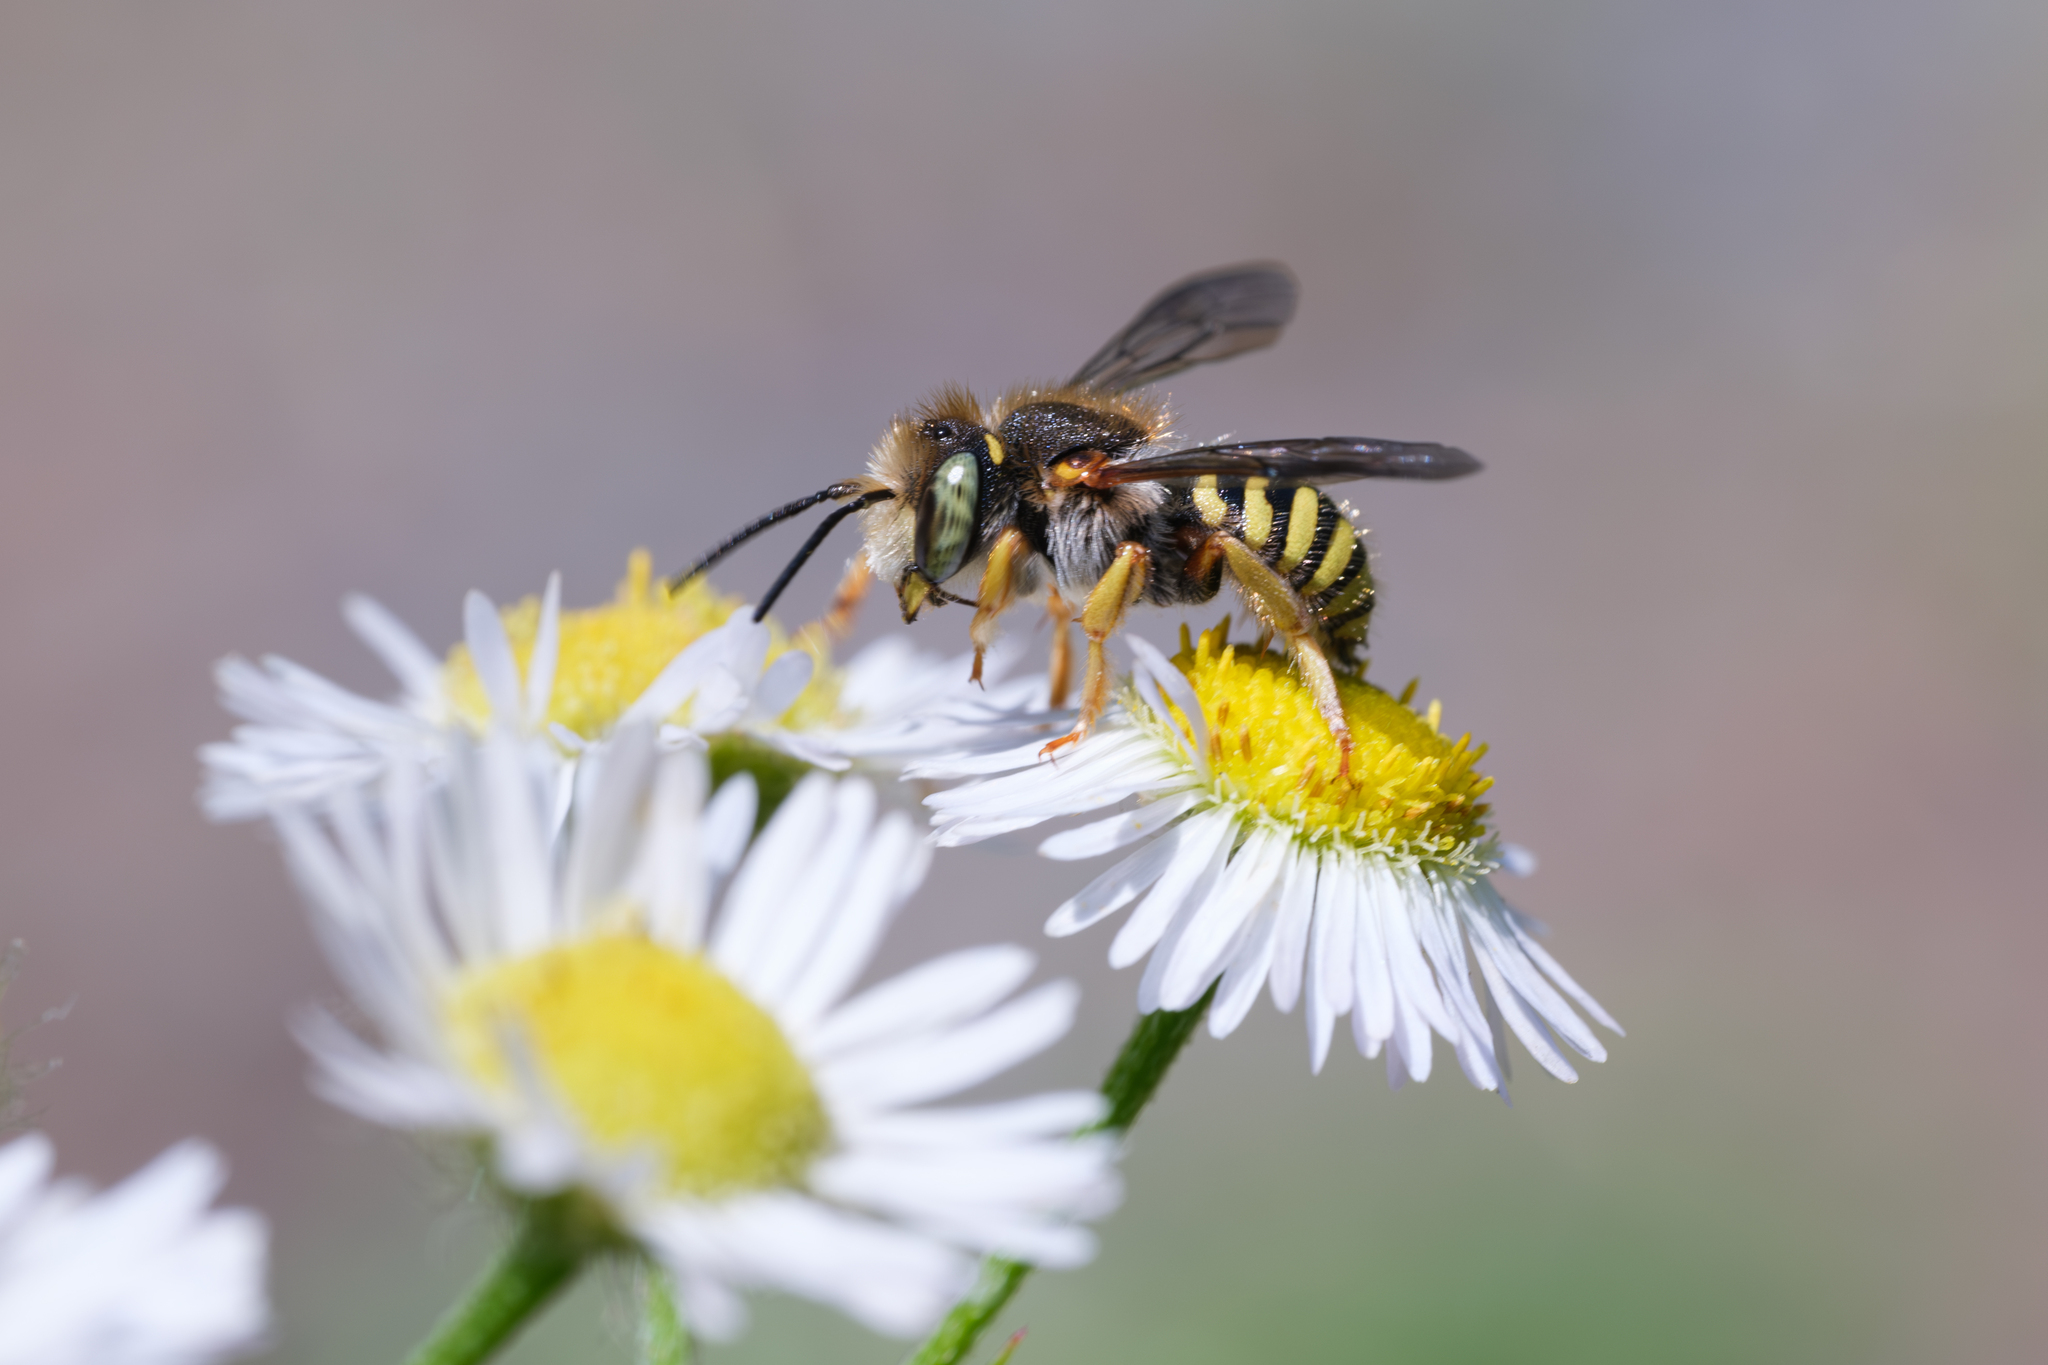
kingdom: Animalia
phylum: Arthropoda
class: Insecta
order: Hymenoptera
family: Megachilidae
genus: Anthidium
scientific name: Anthidium oblongatum
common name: Oblong wool carder bee
